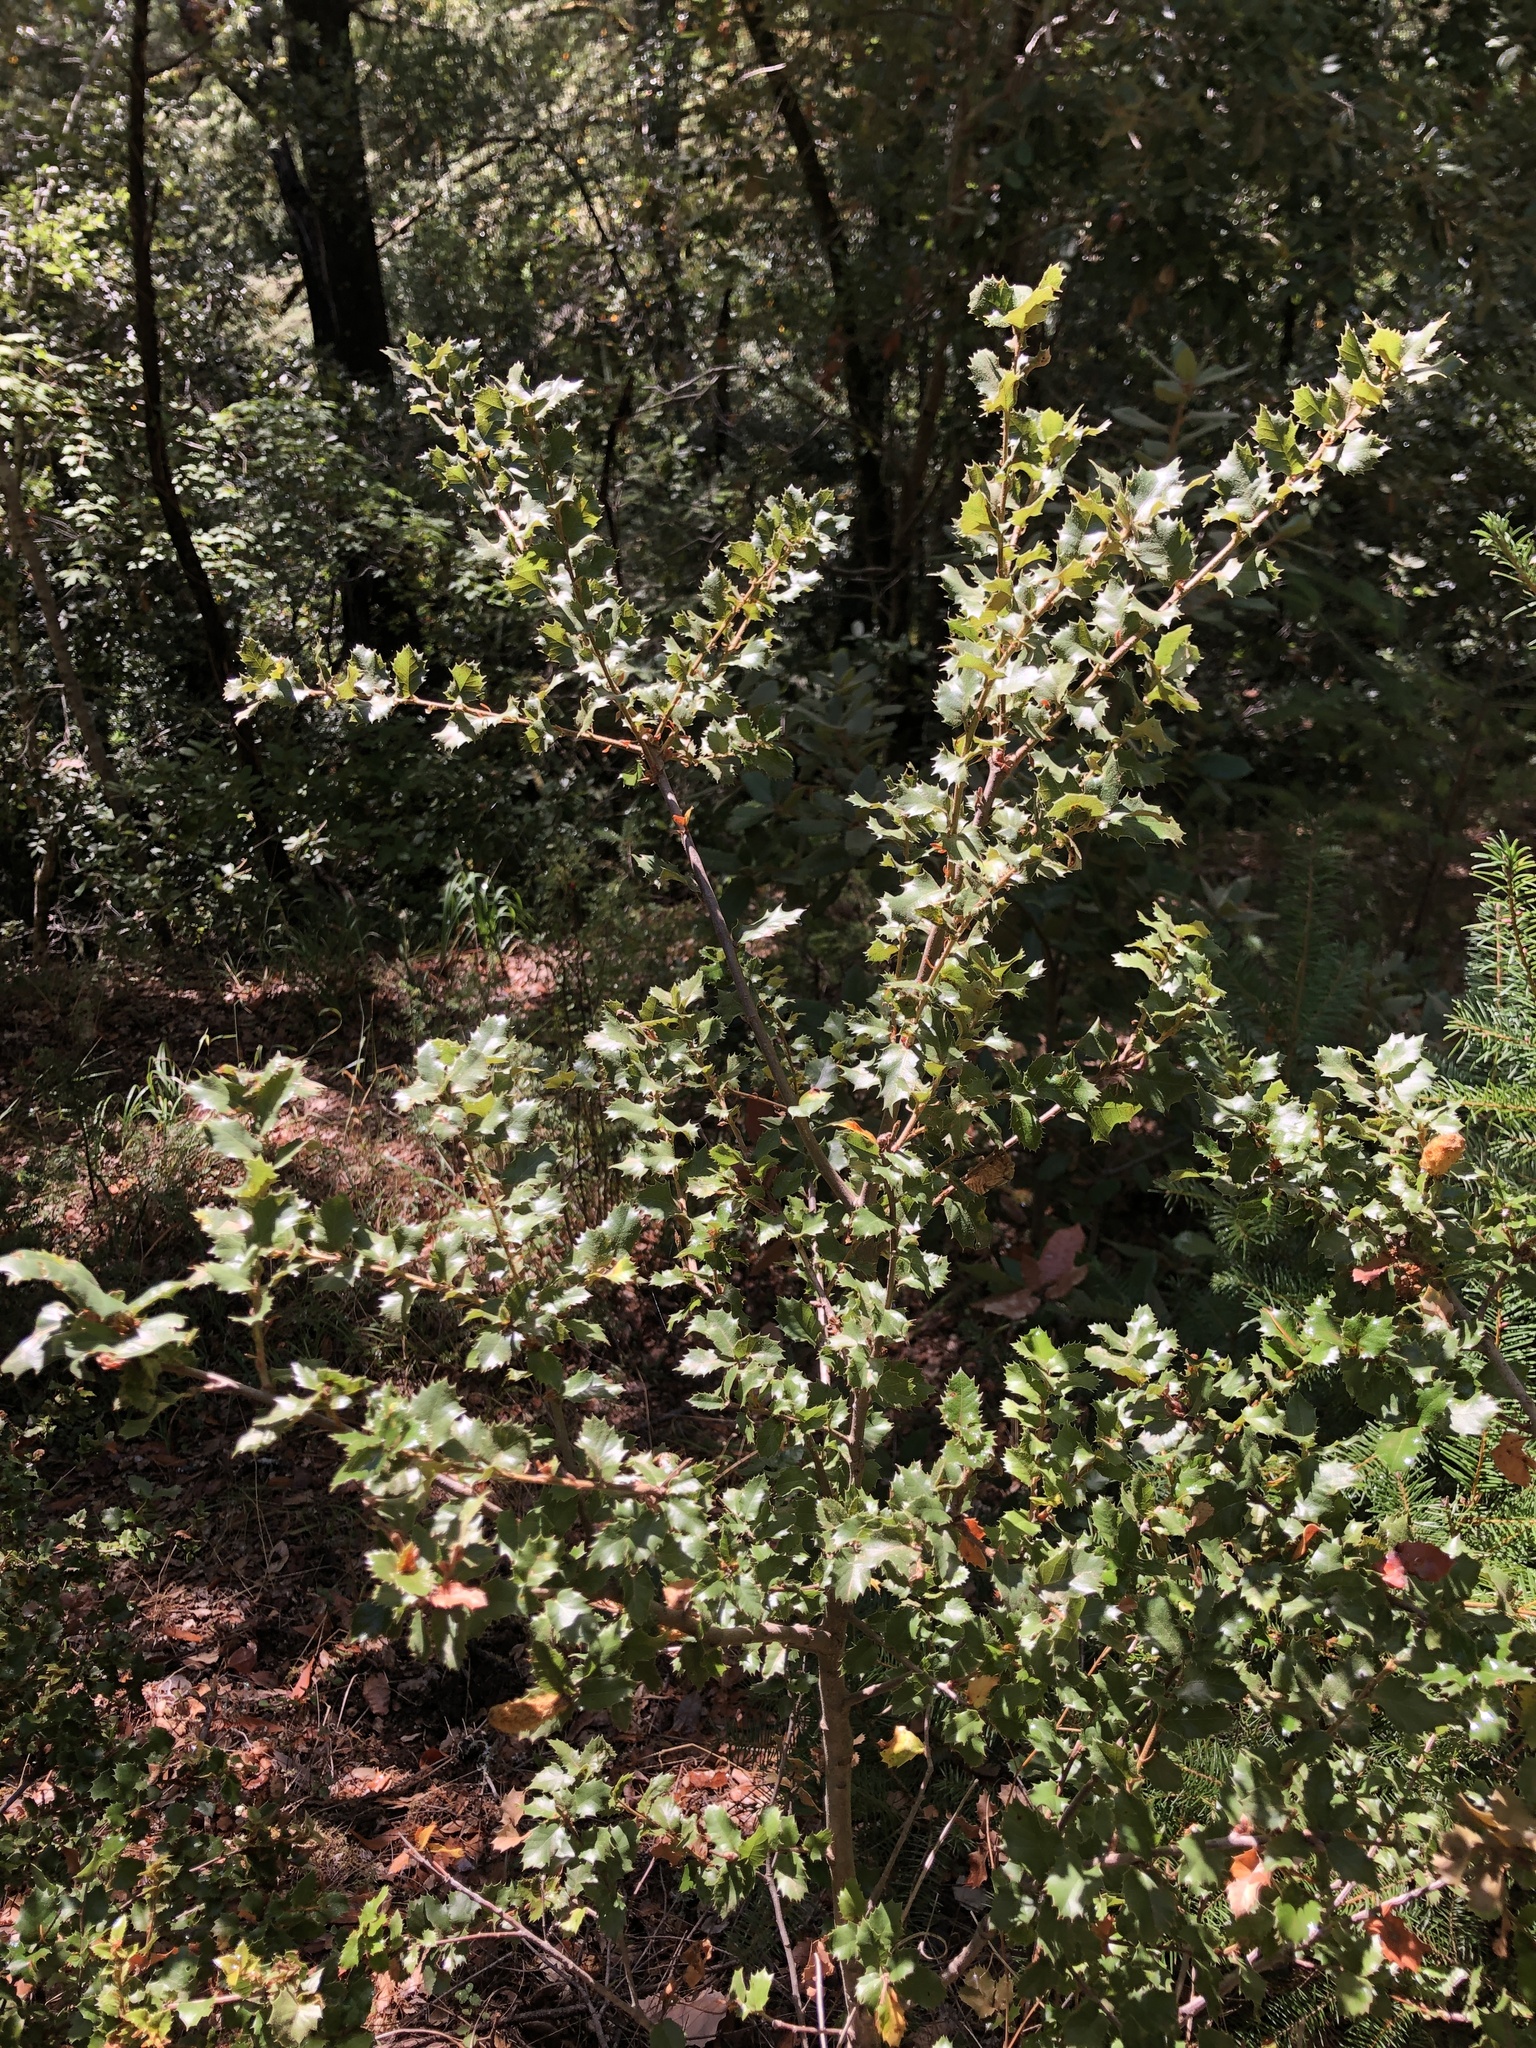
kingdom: Plantae
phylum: Tracheophyta
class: Magnoliopsida
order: Fagales
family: Fagaceae
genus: Quercus
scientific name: Quercus chrysolepis
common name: Canyon live oak
